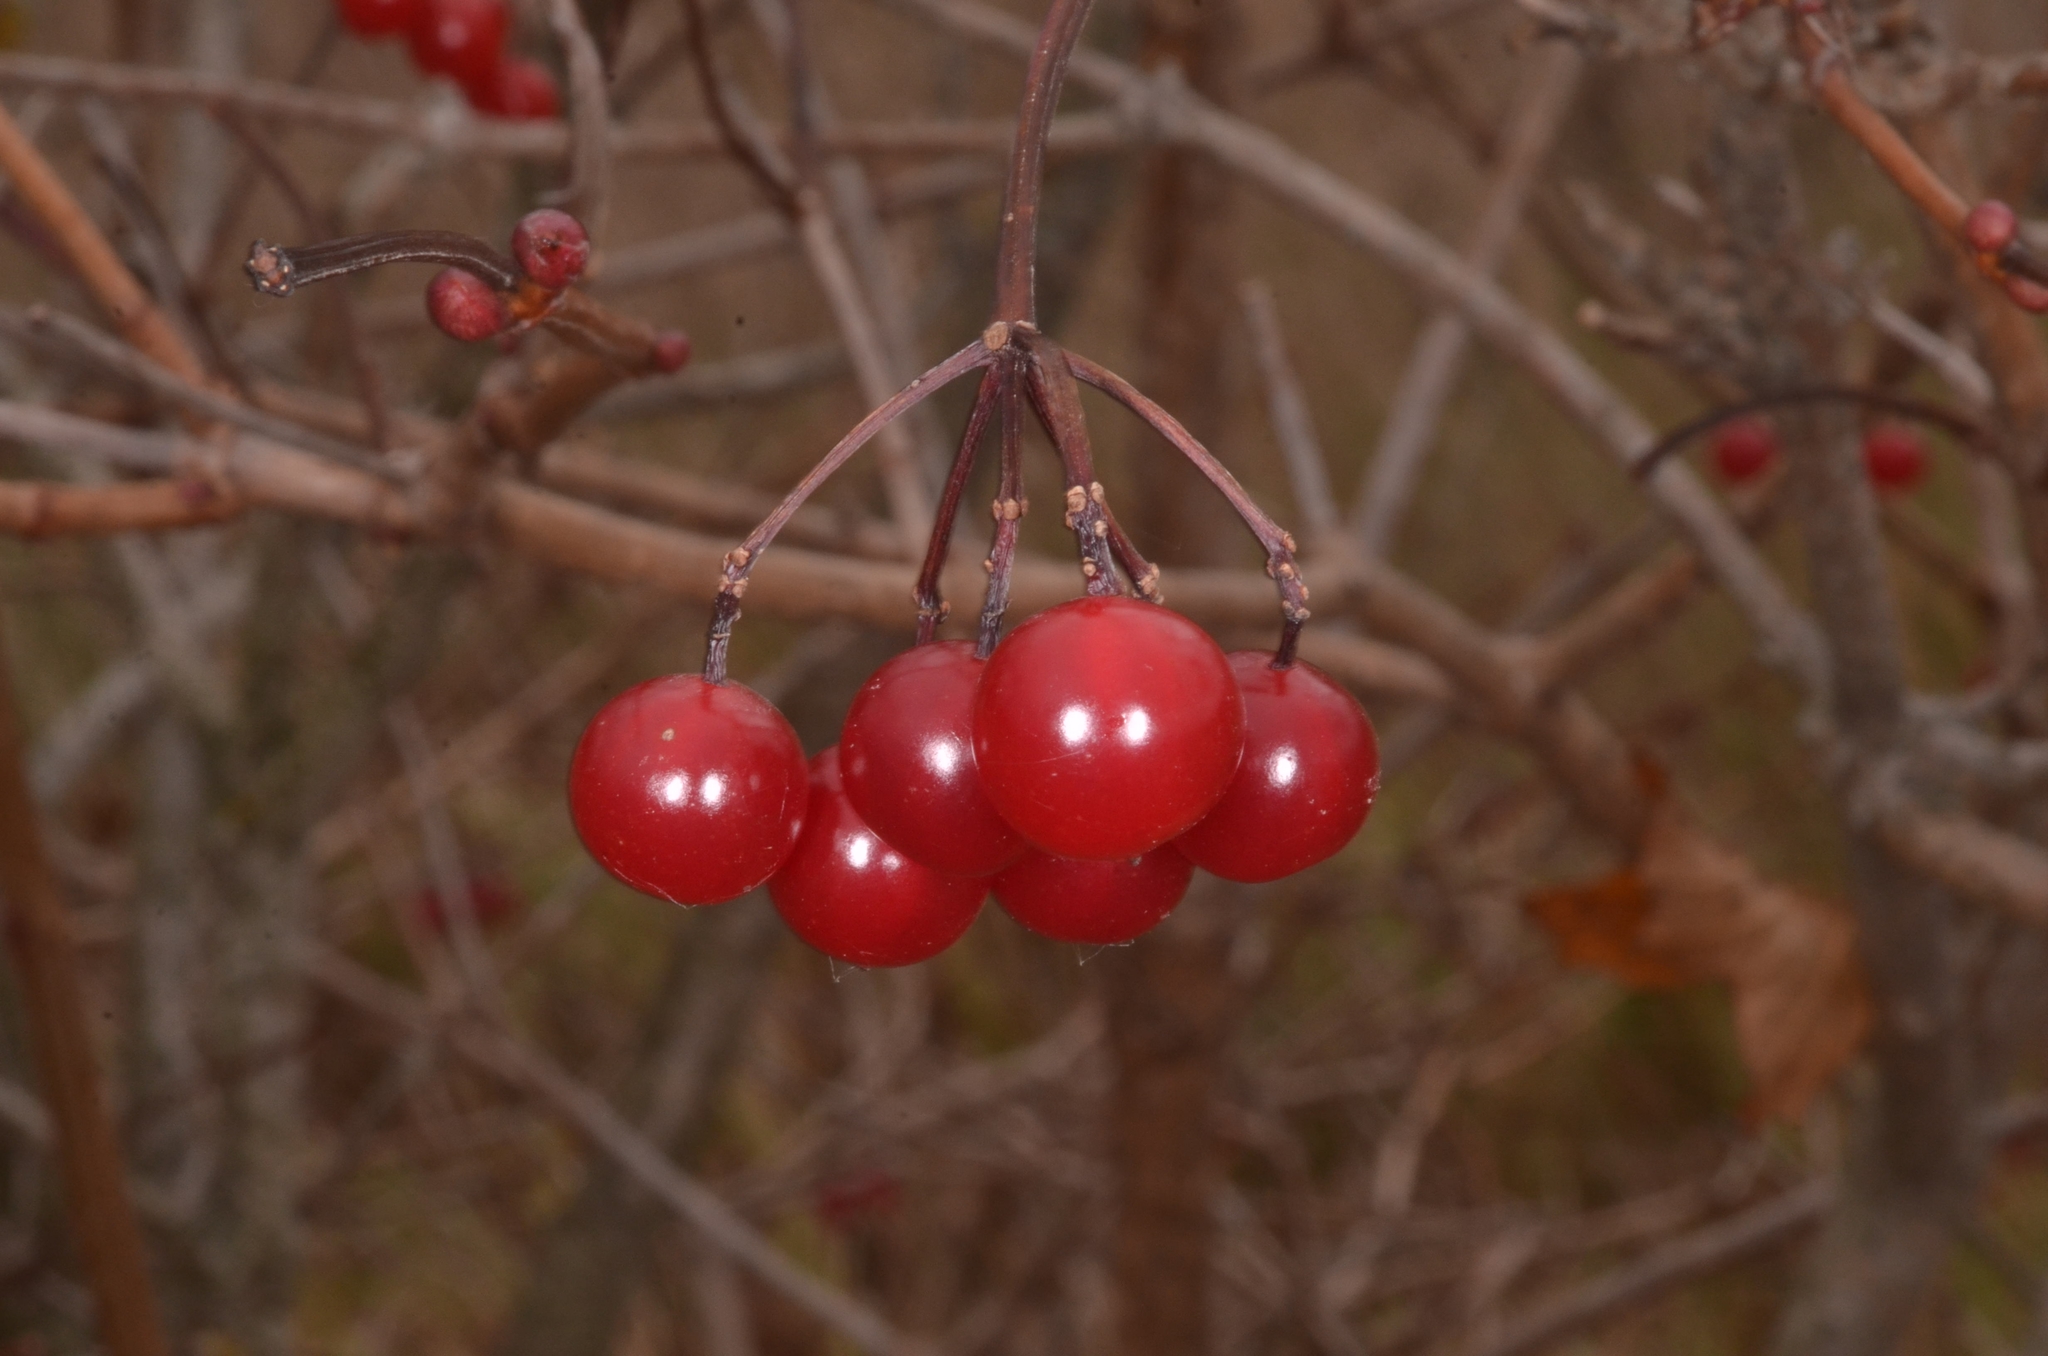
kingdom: Plantae
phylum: Tracheophyta
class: Magnoliopsida
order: Dipsacales
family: Viburnaceae
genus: Viburnum
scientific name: Viburnum opulus
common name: Guelder-rose
